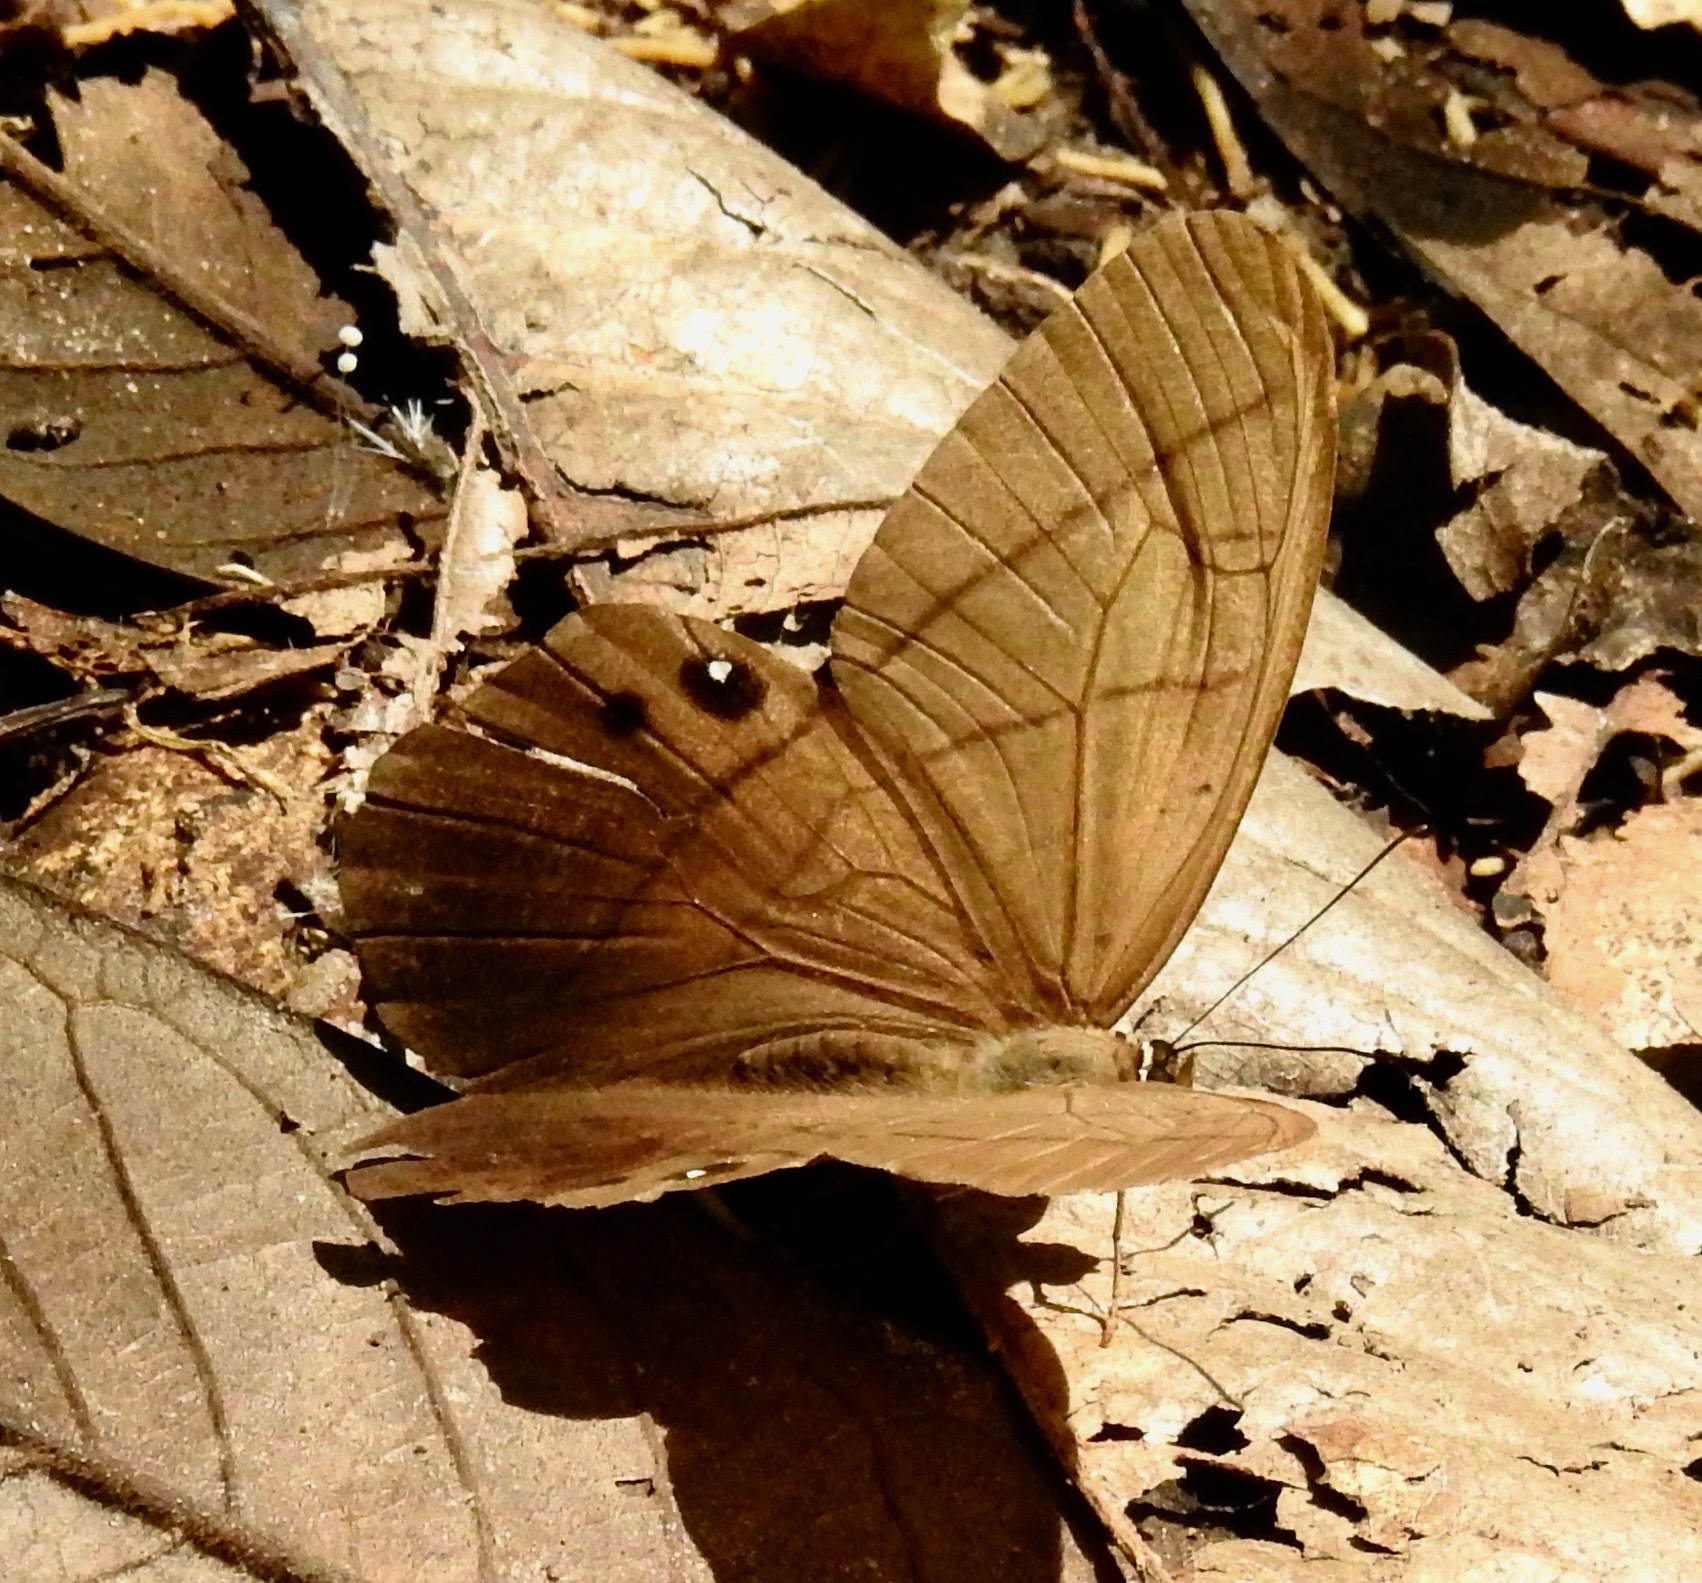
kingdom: Animalia
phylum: Arthropoda
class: Insecta
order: Lepidoptera
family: Nymphalidae
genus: Pierella
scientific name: Pierella lena
